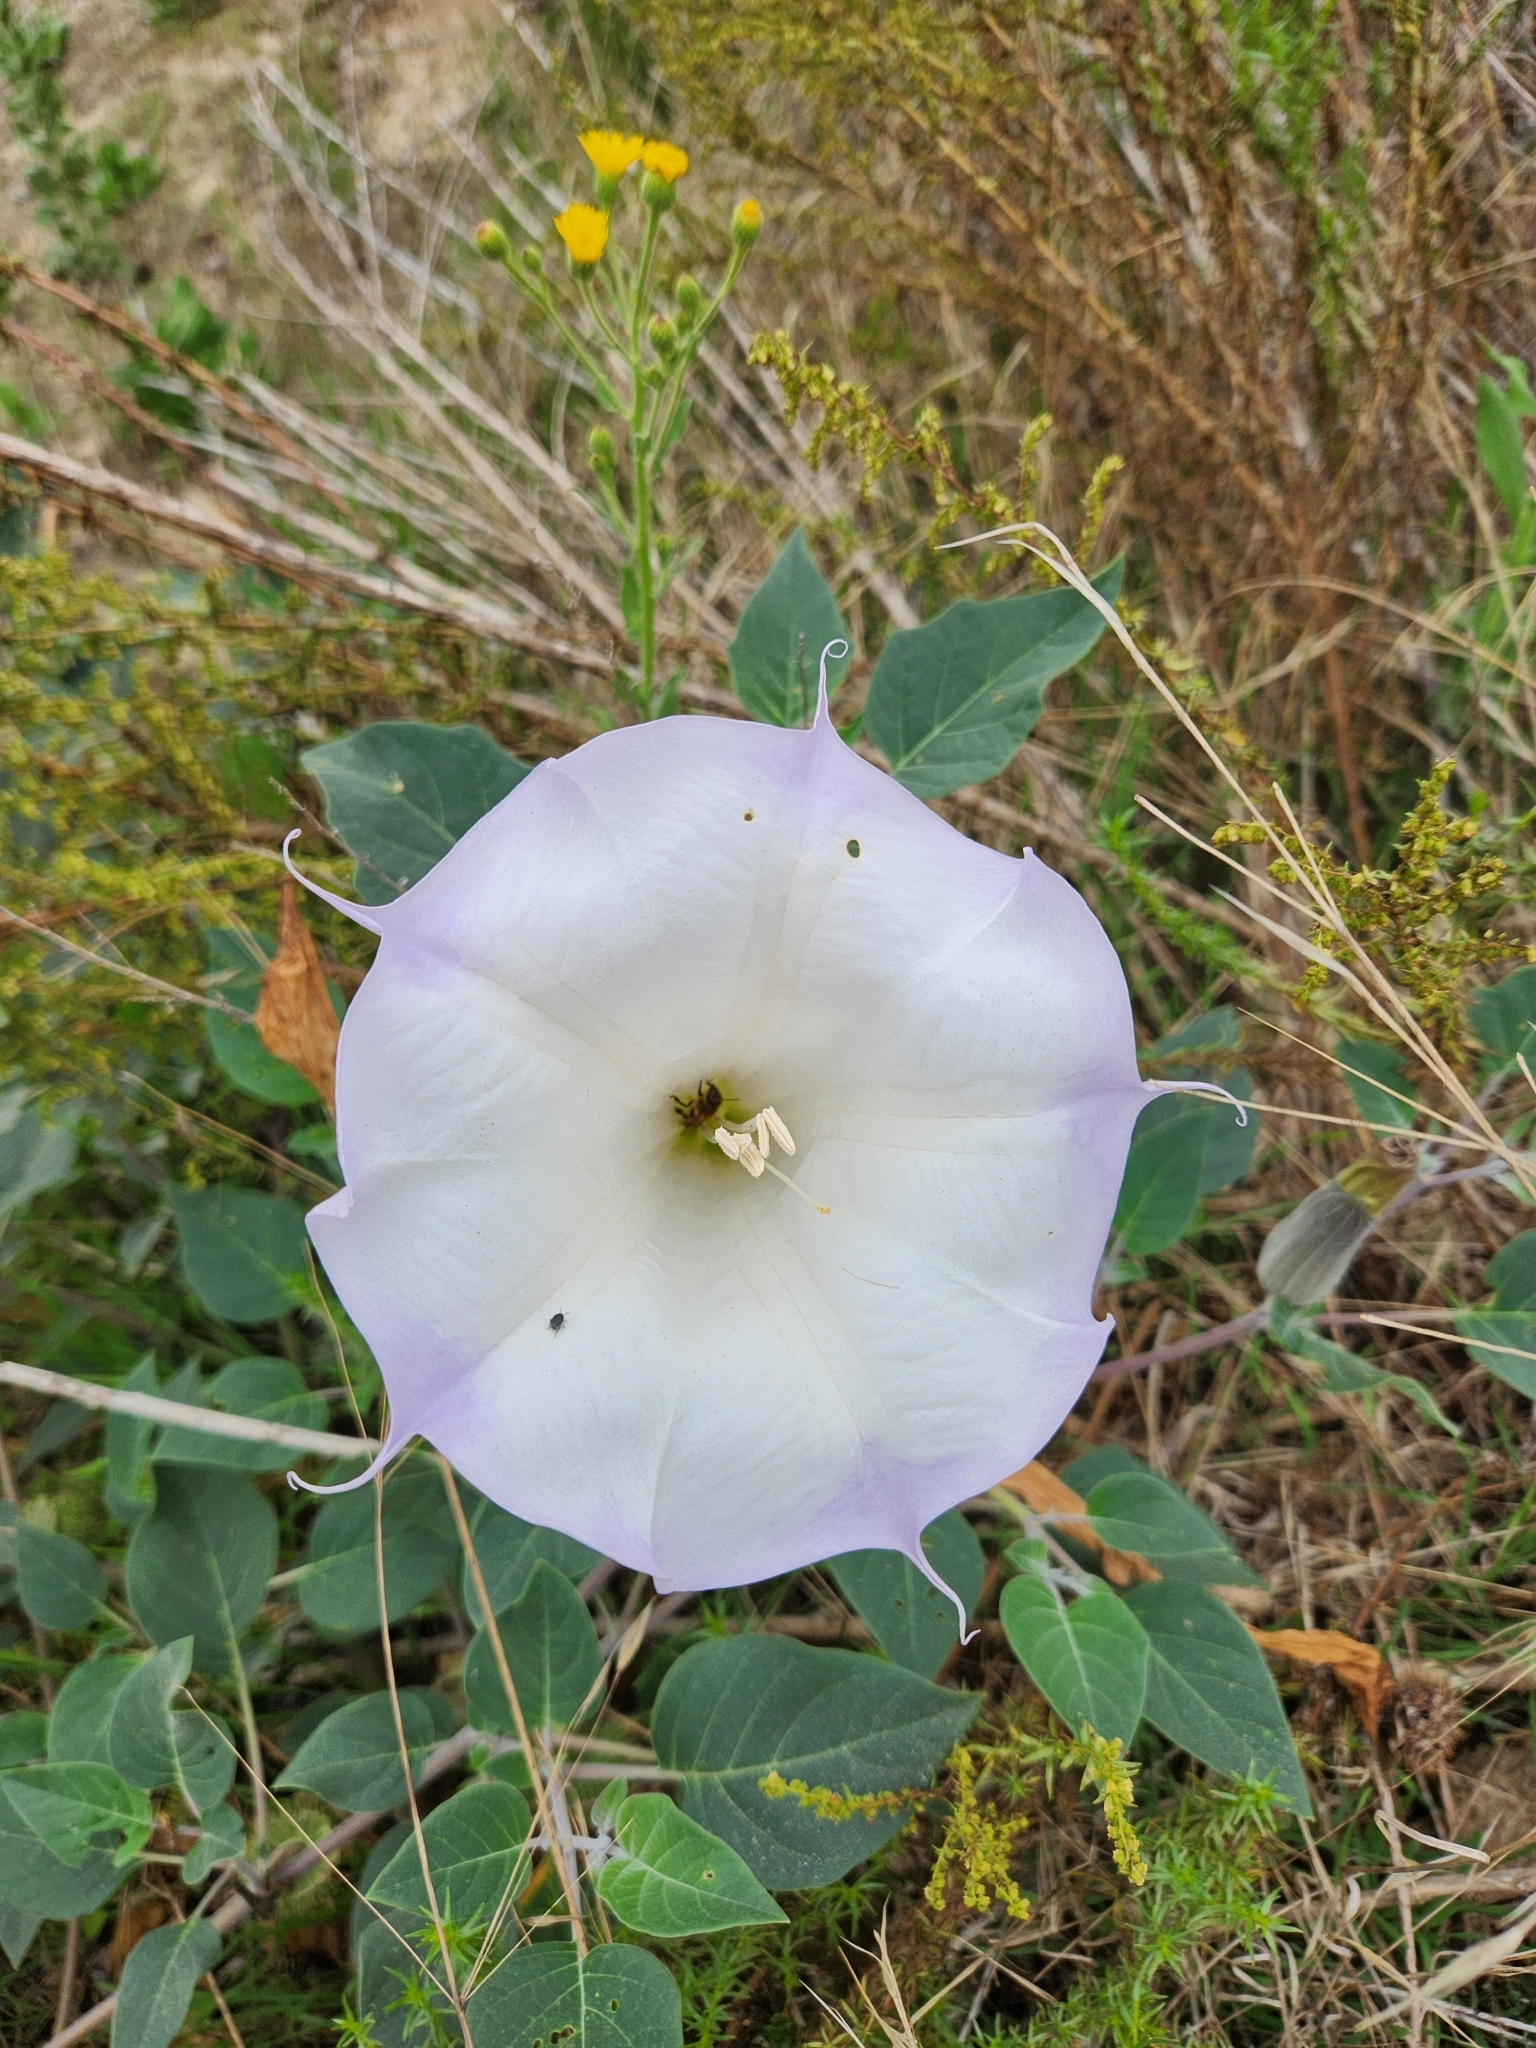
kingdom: Plantae
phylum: Tracheophyta
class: Magnoliopsida
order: Solanales
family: Solanaceae
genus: Datura
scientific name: Datura wrightii
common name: Sacred thorn-apple
